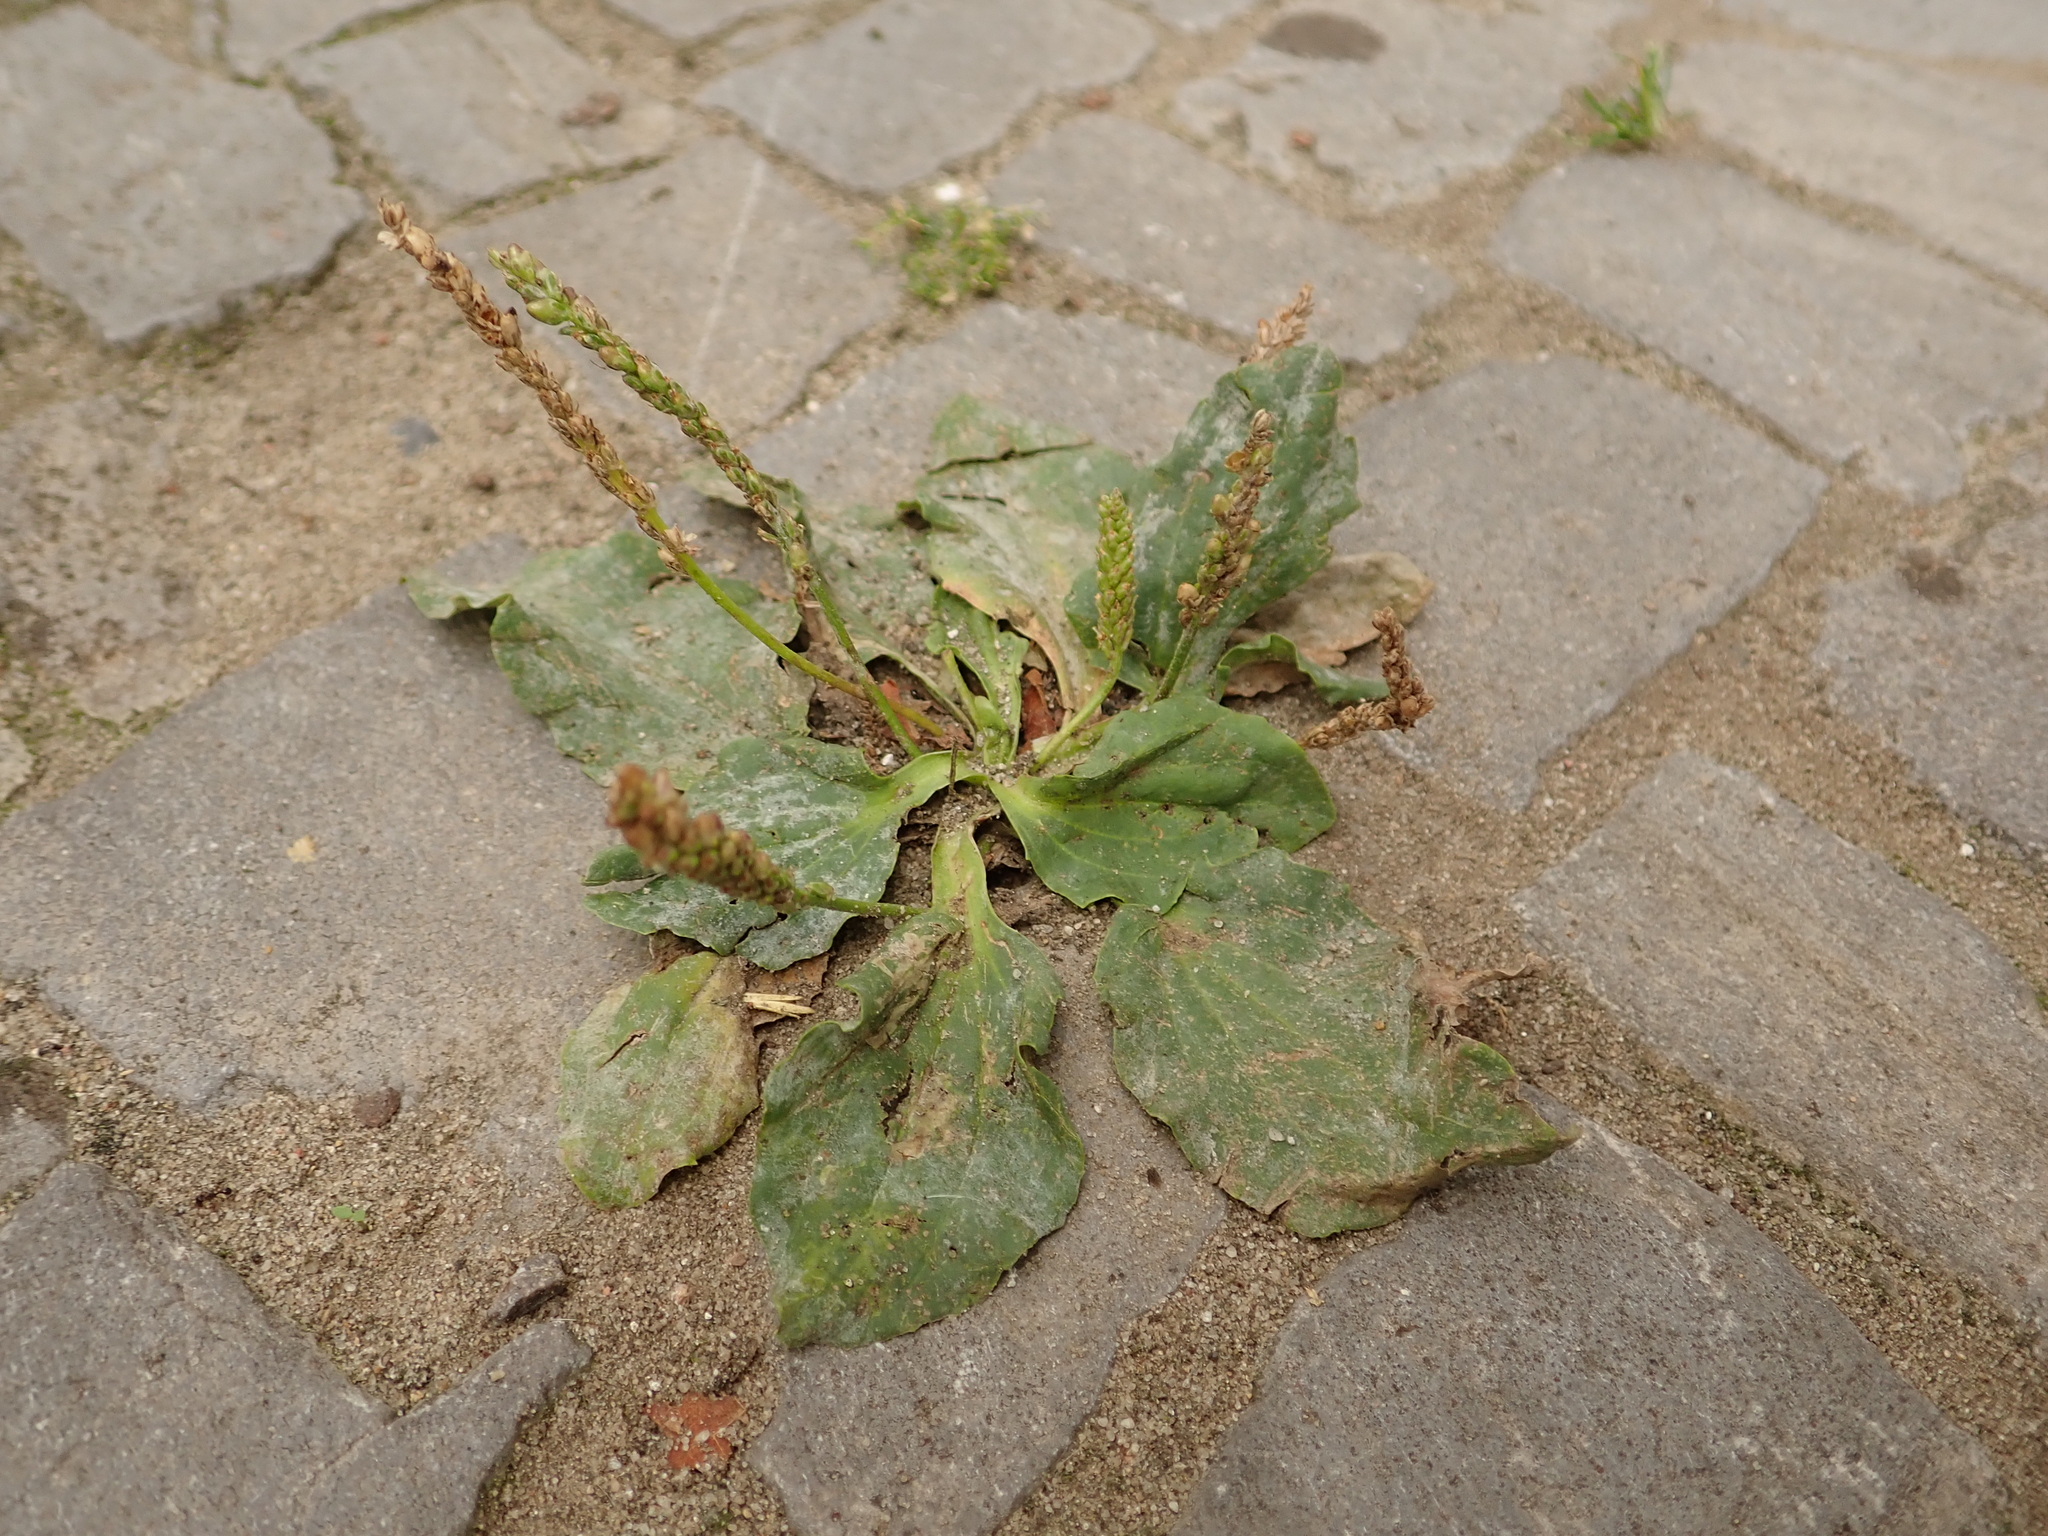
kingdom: Plantae
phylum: Tracheophyta
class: Magnoliopsida
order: Lamiales
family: Plantaginaceae
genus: Plantago
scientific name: Plantago major
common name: Common plantain
